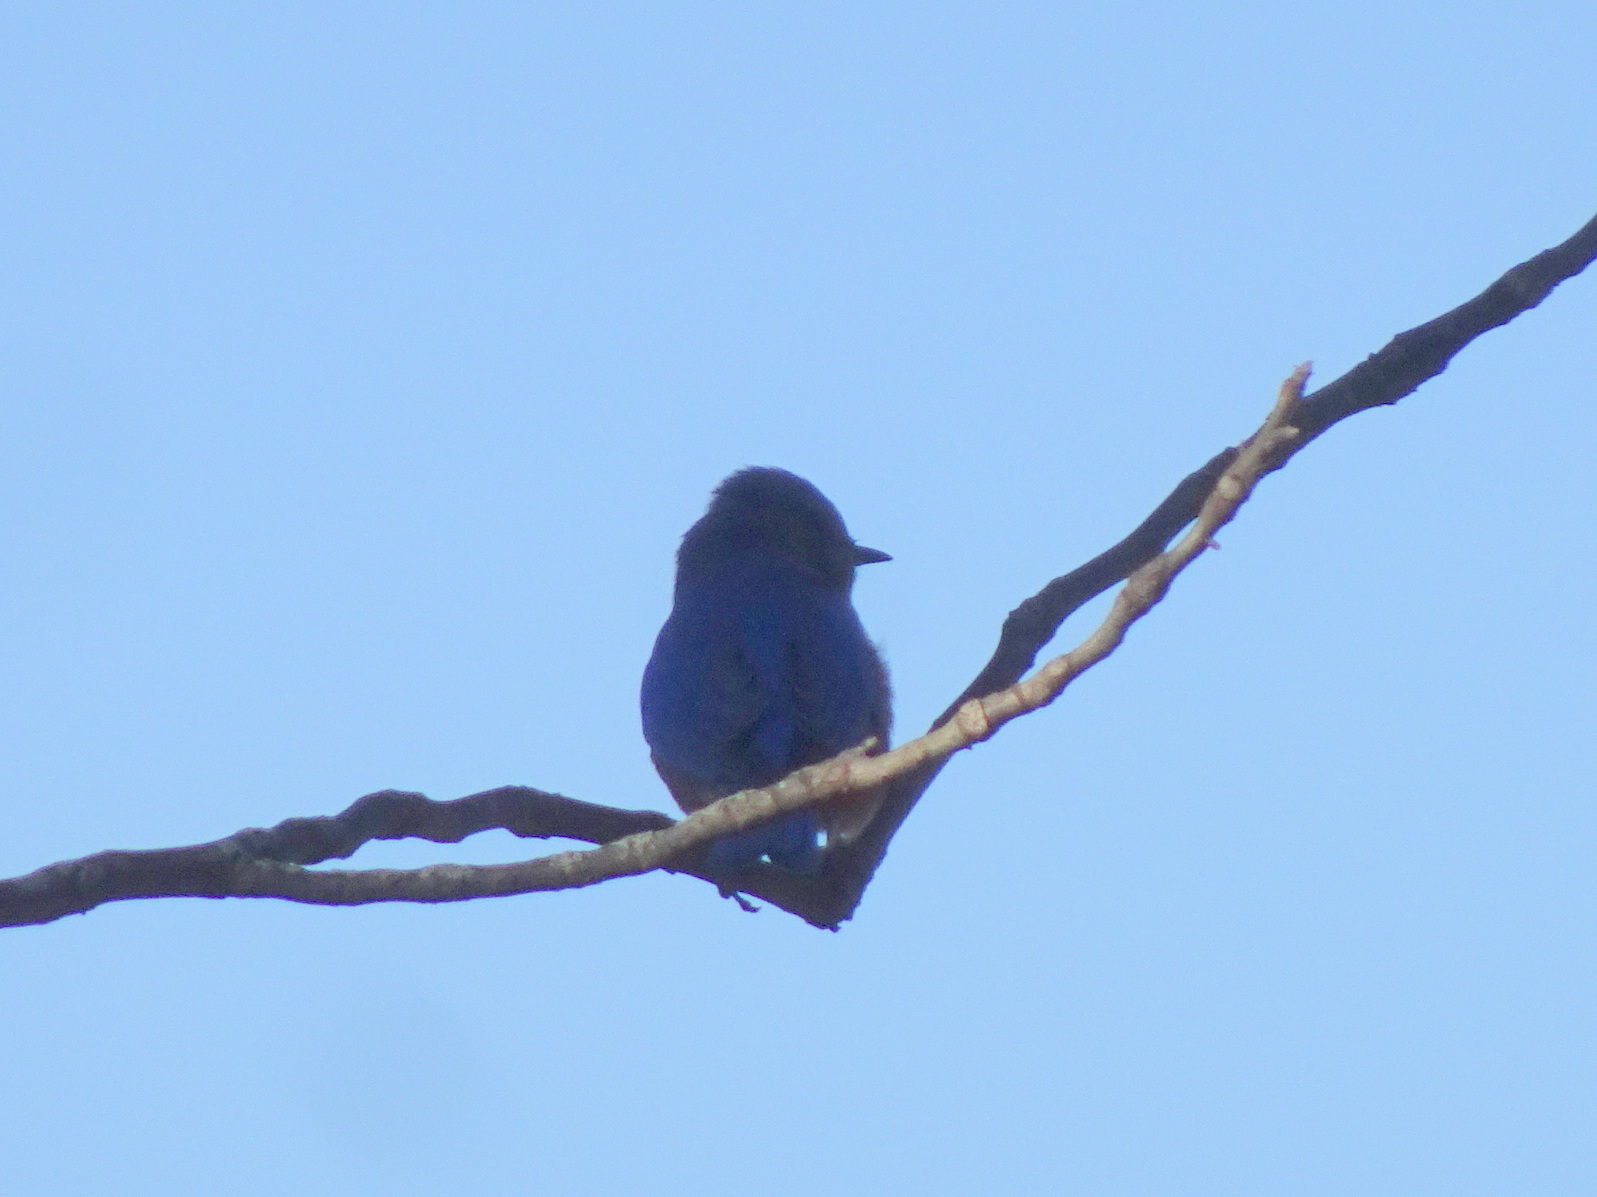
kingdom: Animalia
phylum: Chordata
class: Aves
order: Passeriformes
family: Turdidae
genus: Sialia
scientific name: Sialia sialis
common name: Eastern bluebird
